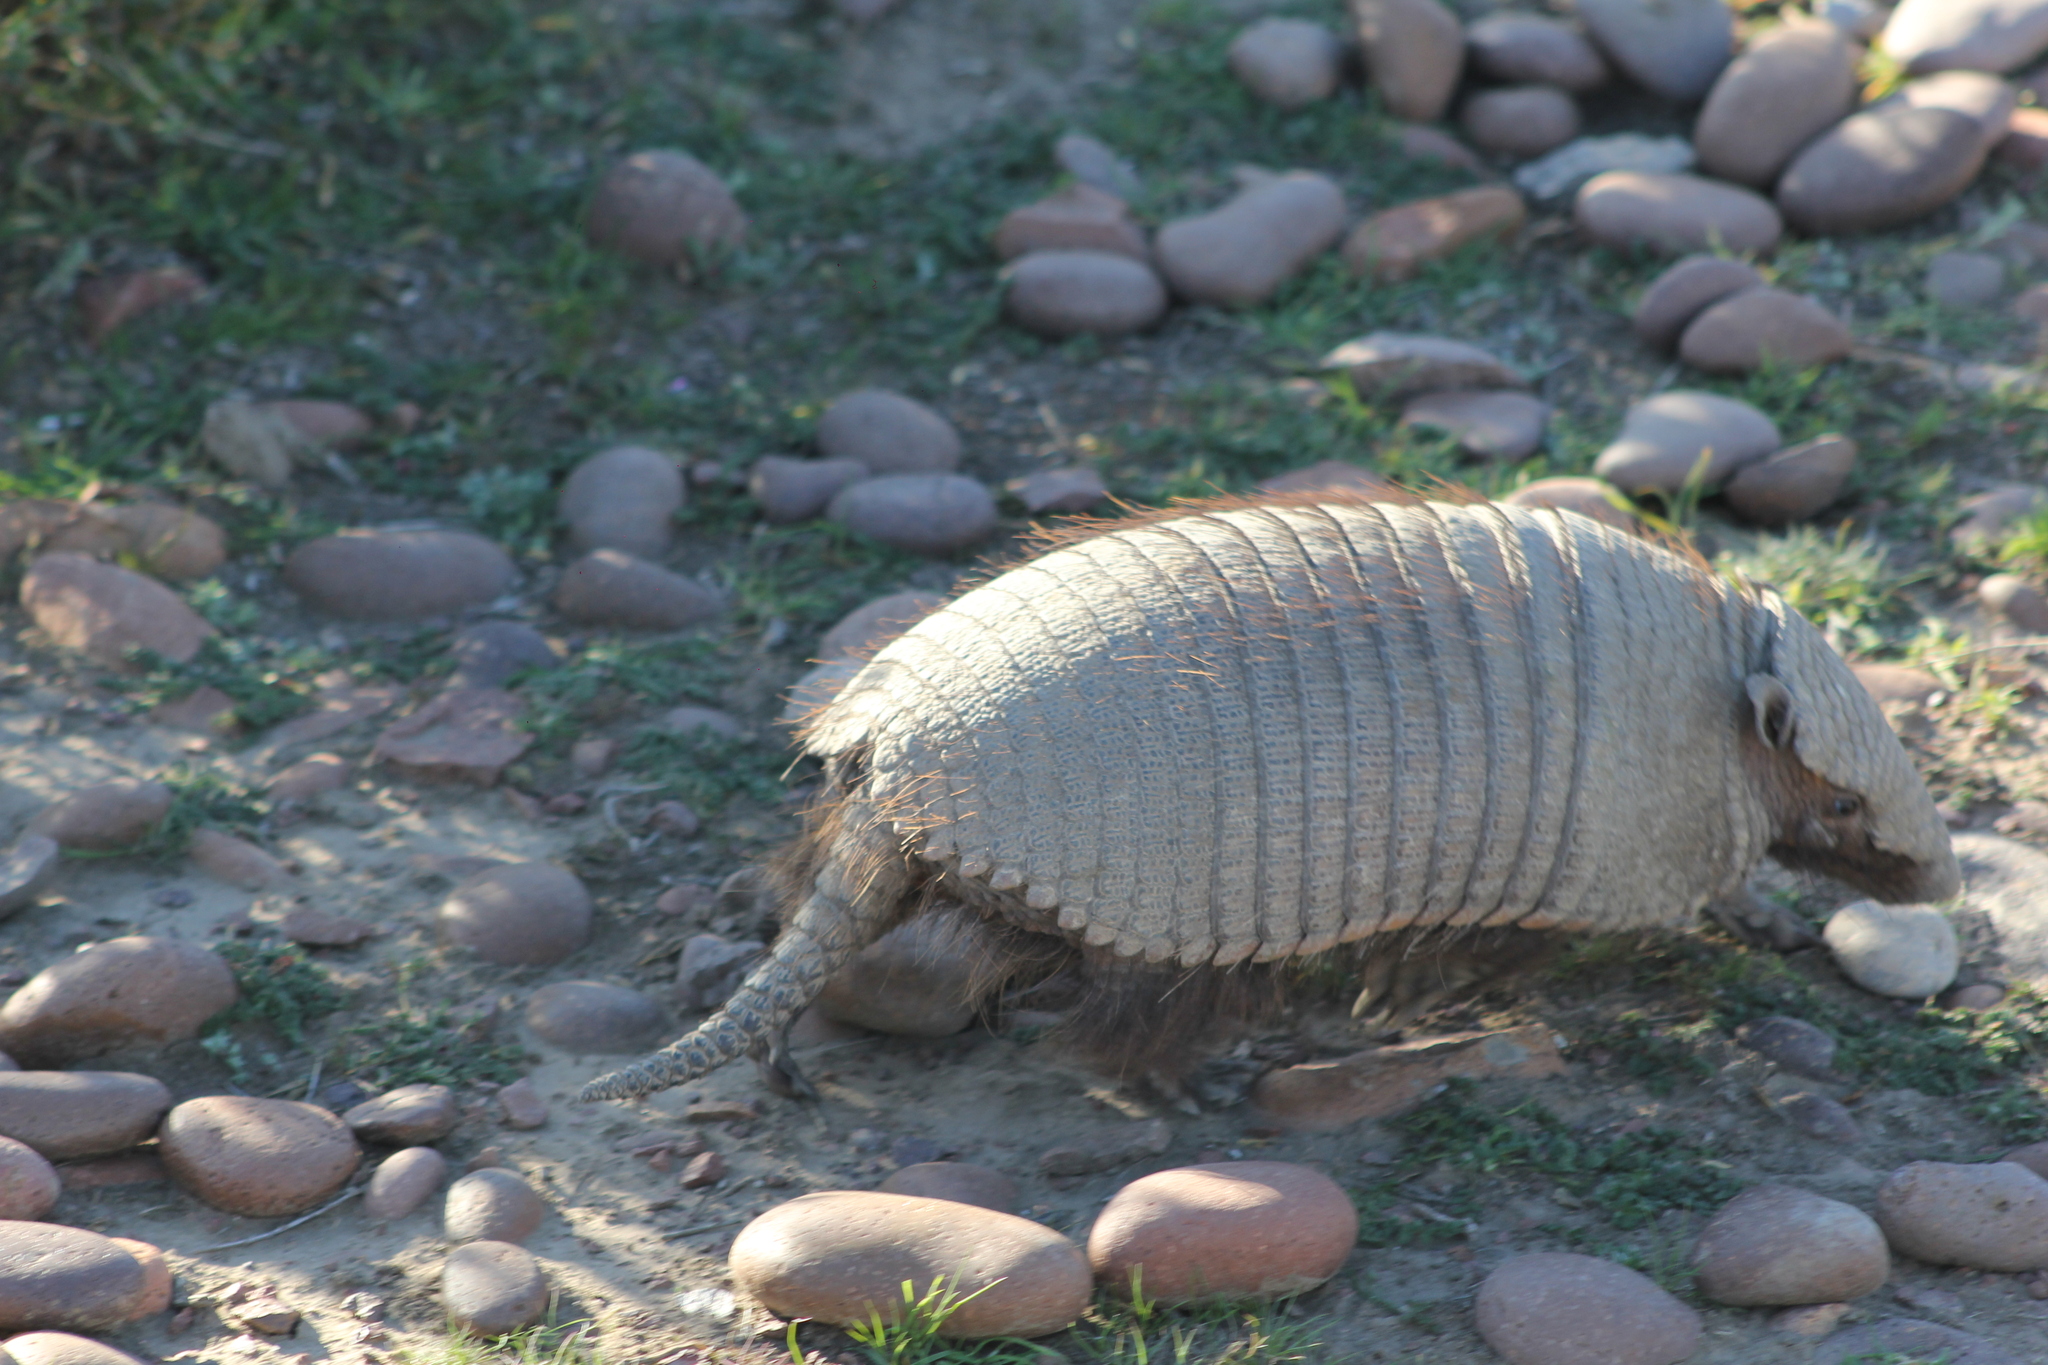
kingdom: Animalia
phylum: Chordata
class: Mammalia
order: Cingulata
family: Dasypodidae
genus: Chaetophractus
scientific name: Chaetophractus villosus
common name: Big hairy armadillo
